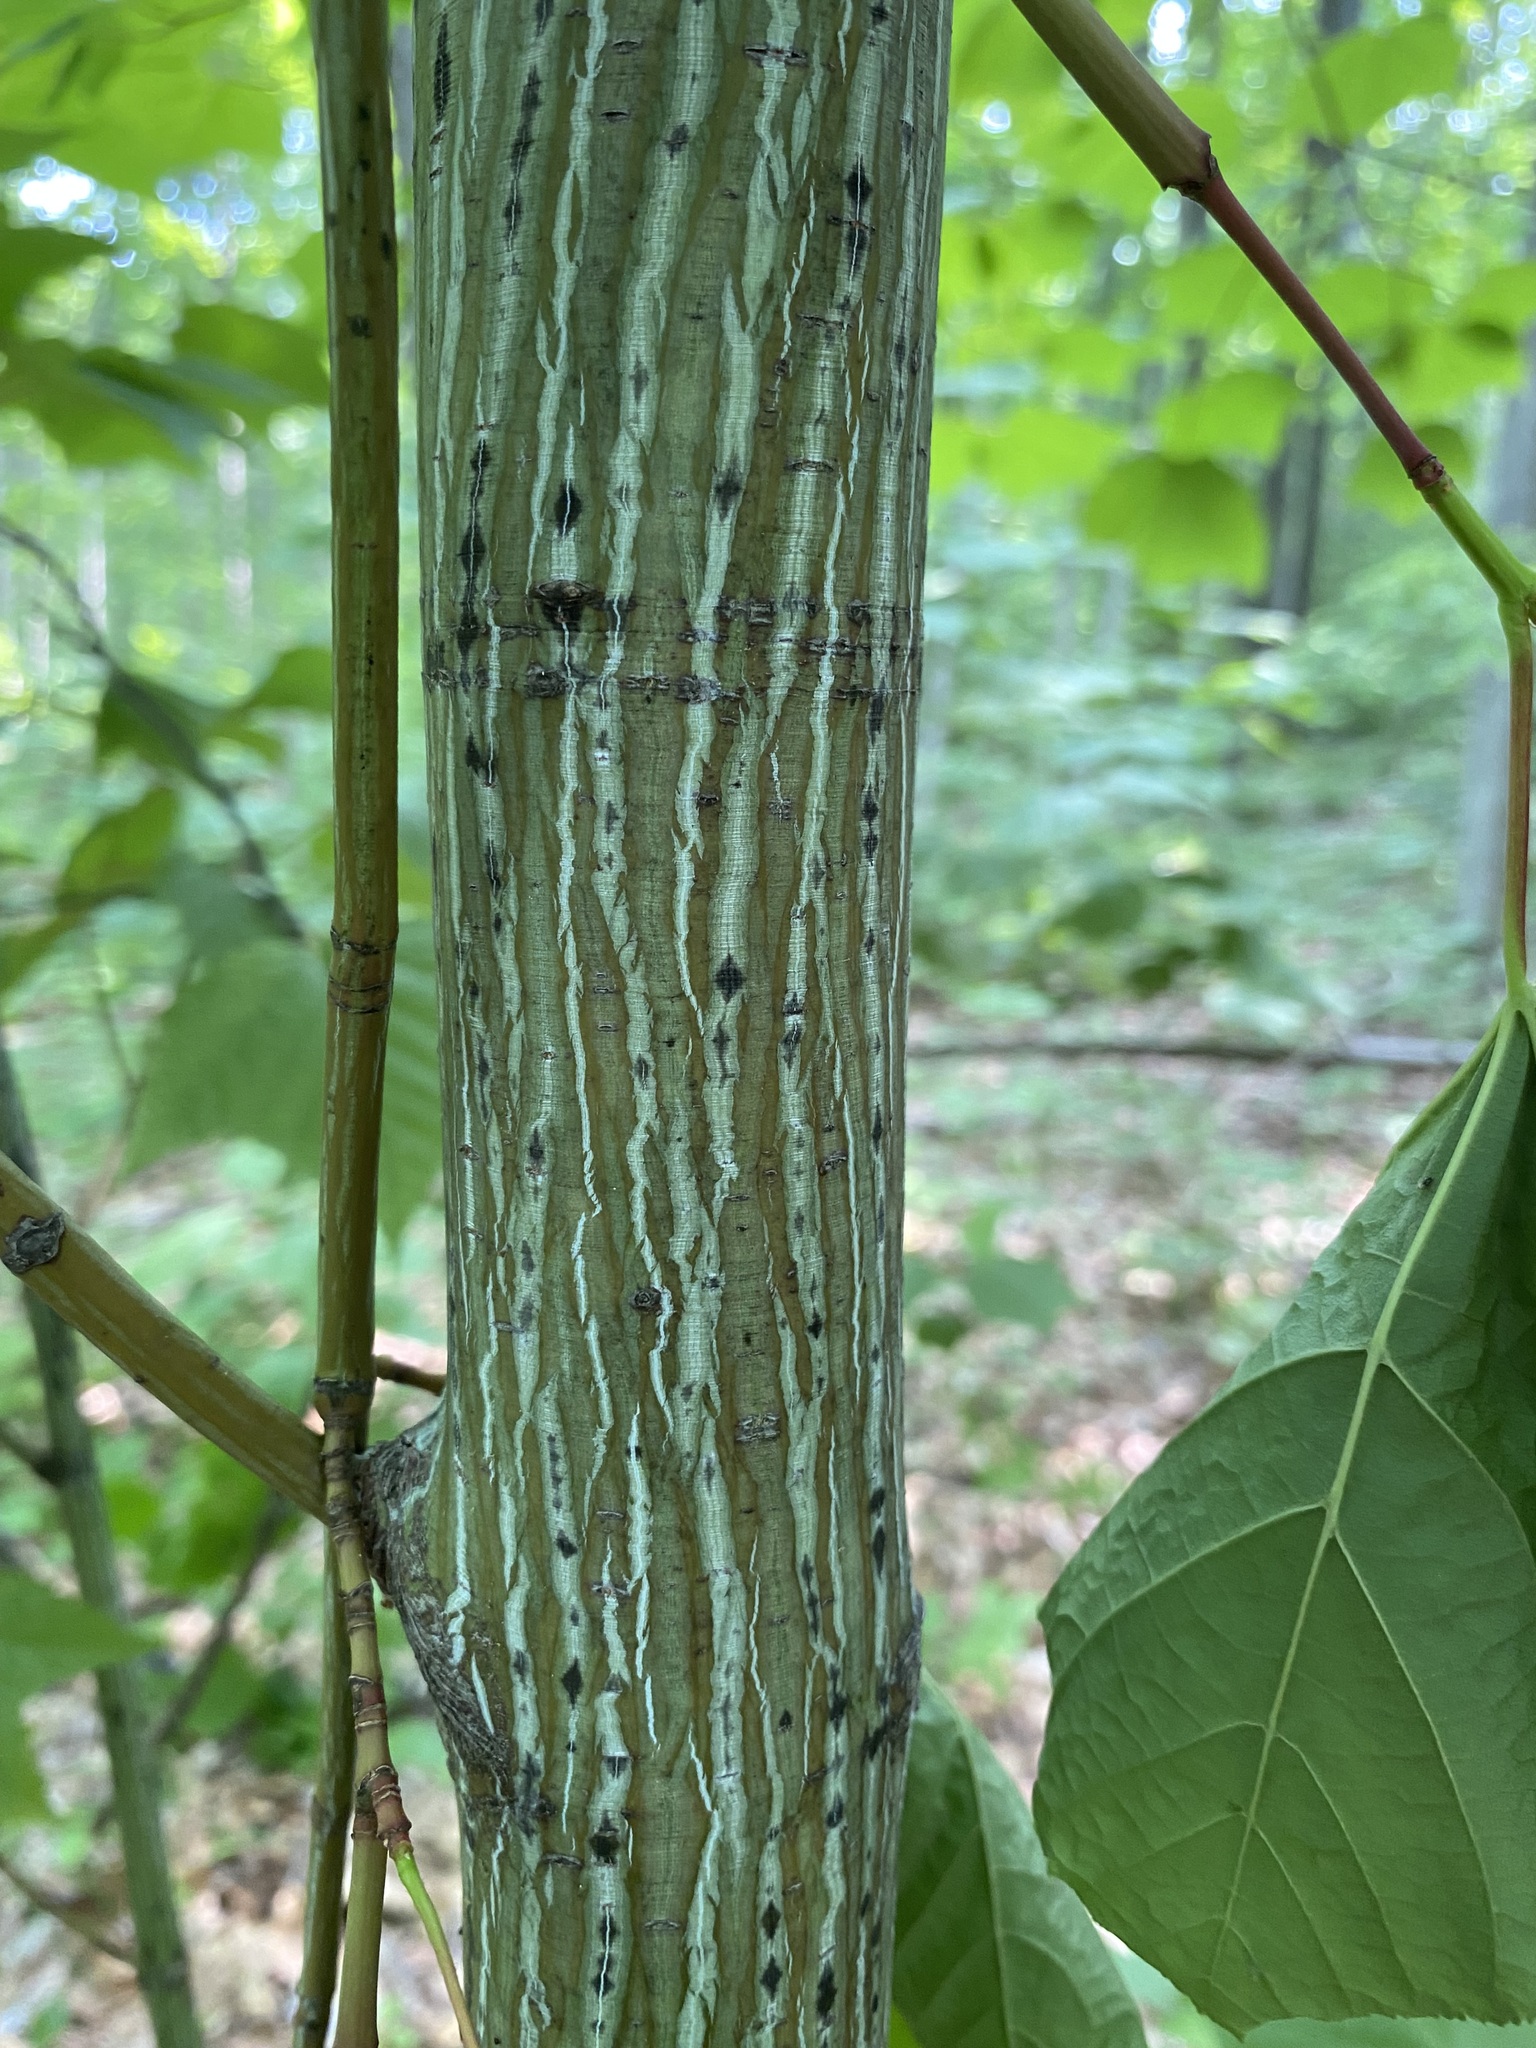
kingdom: Plantae
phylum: Tracheophyta
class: Magnoliopsida
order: Sapindales
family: Sapindaceae
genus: Acer
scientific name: Acer pensylvanicum
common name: Moosewood
